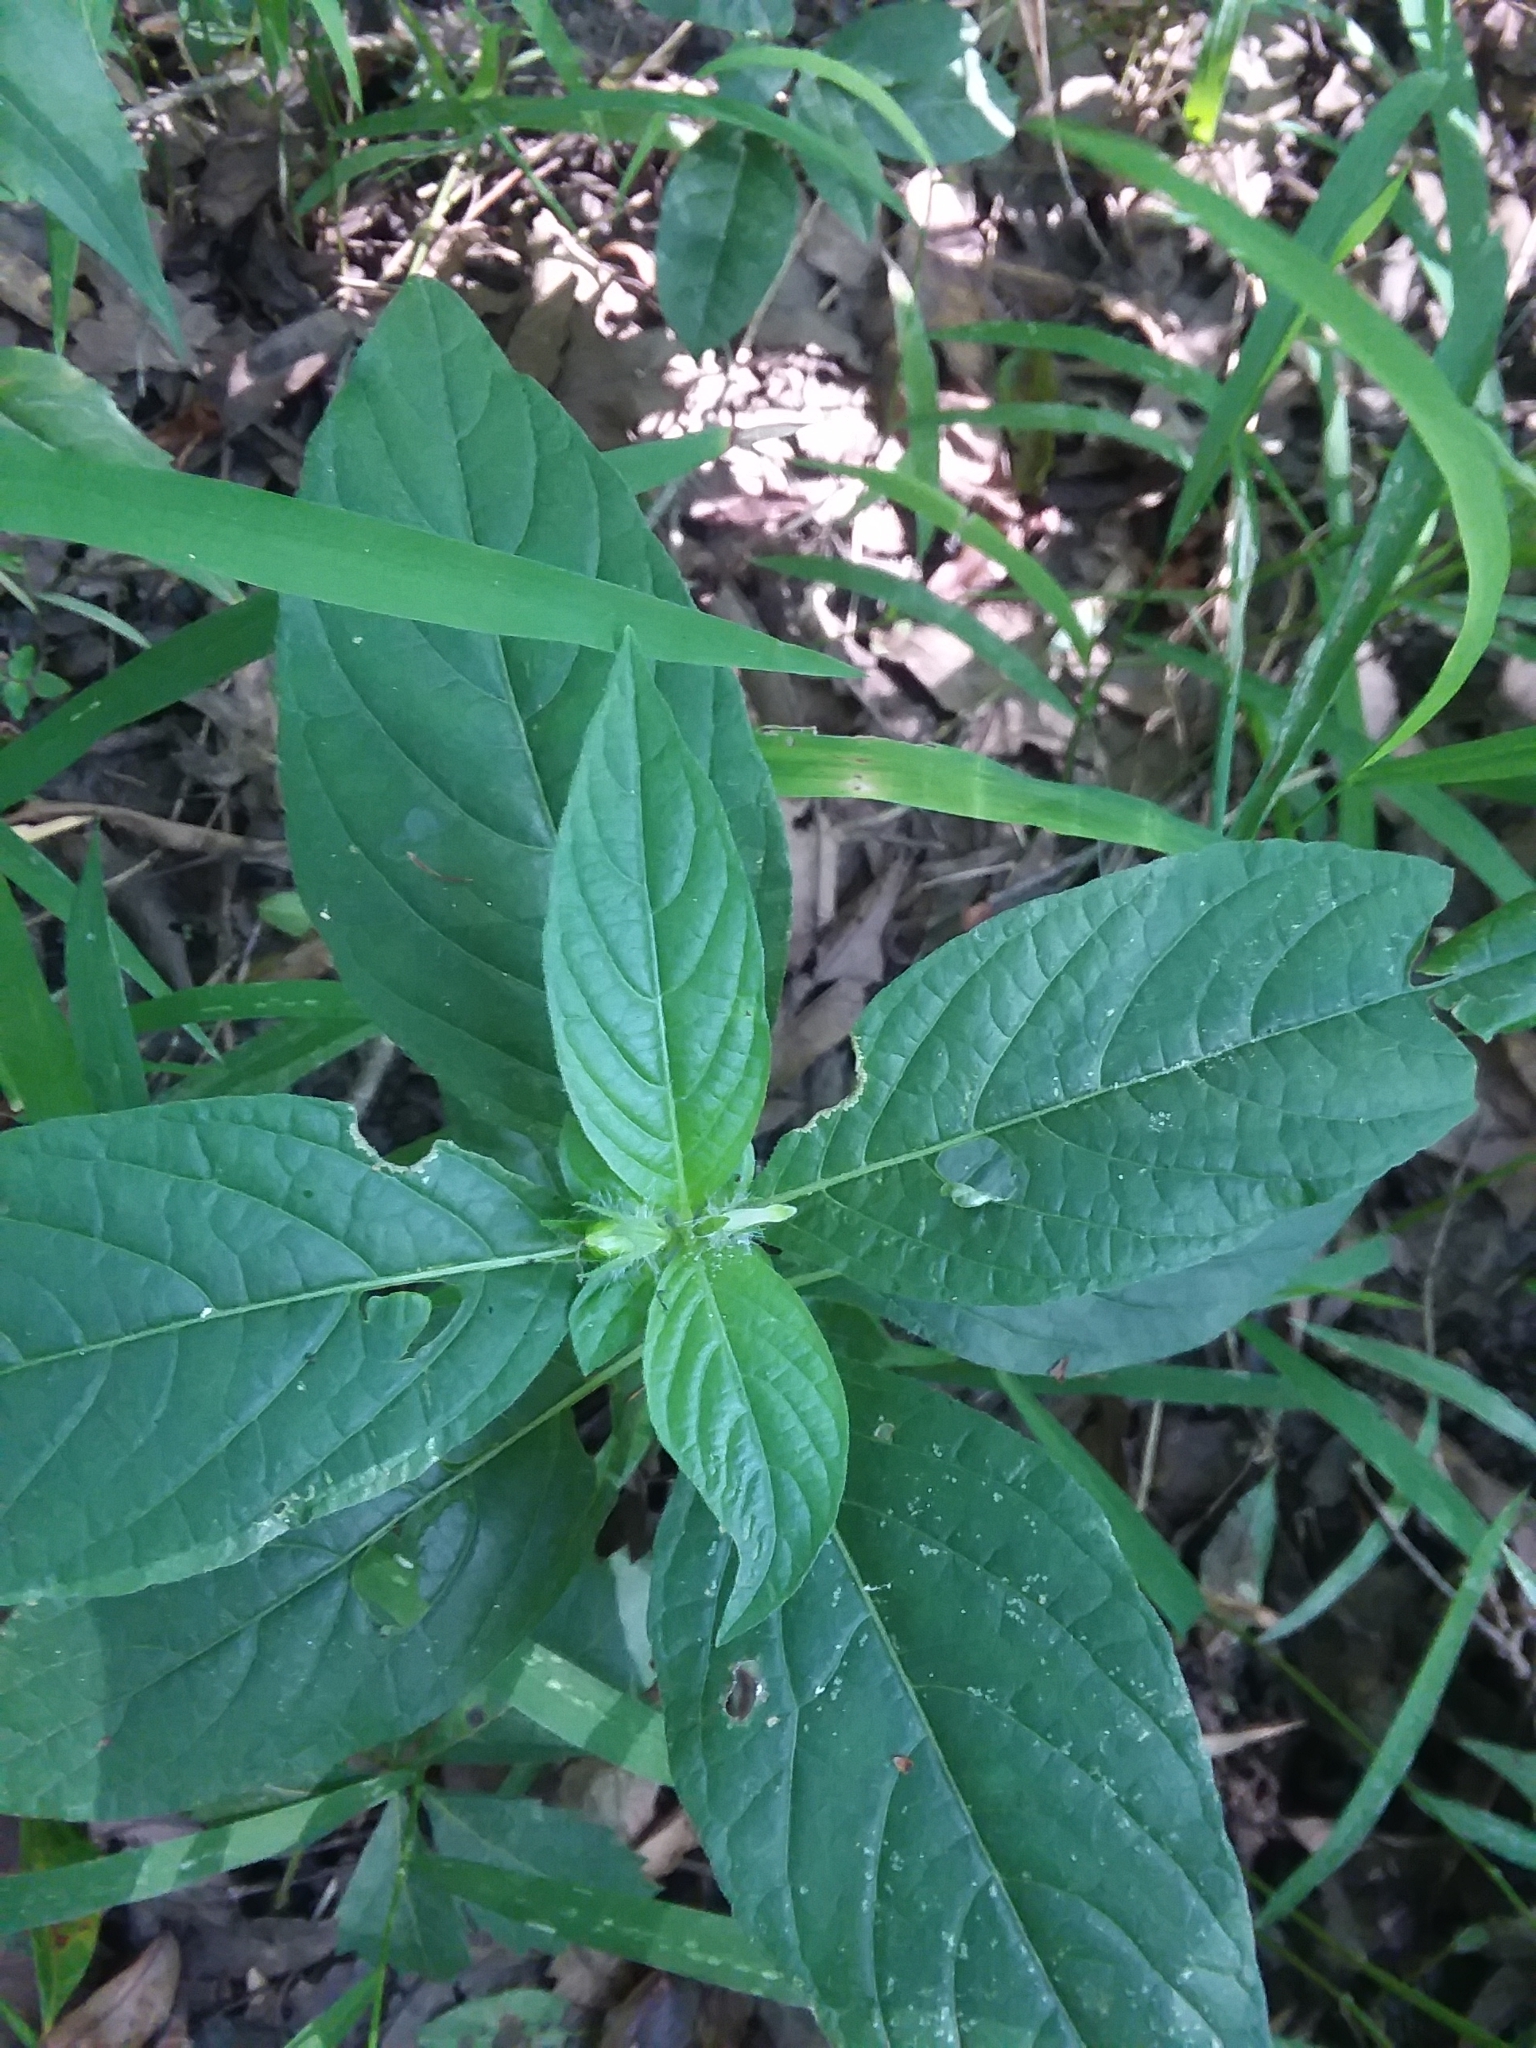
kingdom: Plantae
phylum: Tracheophyta
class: Magnoliopsida
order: Lamiales
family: Acanthaceae
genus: Ruellia
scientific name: Ruellia strepens
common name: Limestone wild petunia
